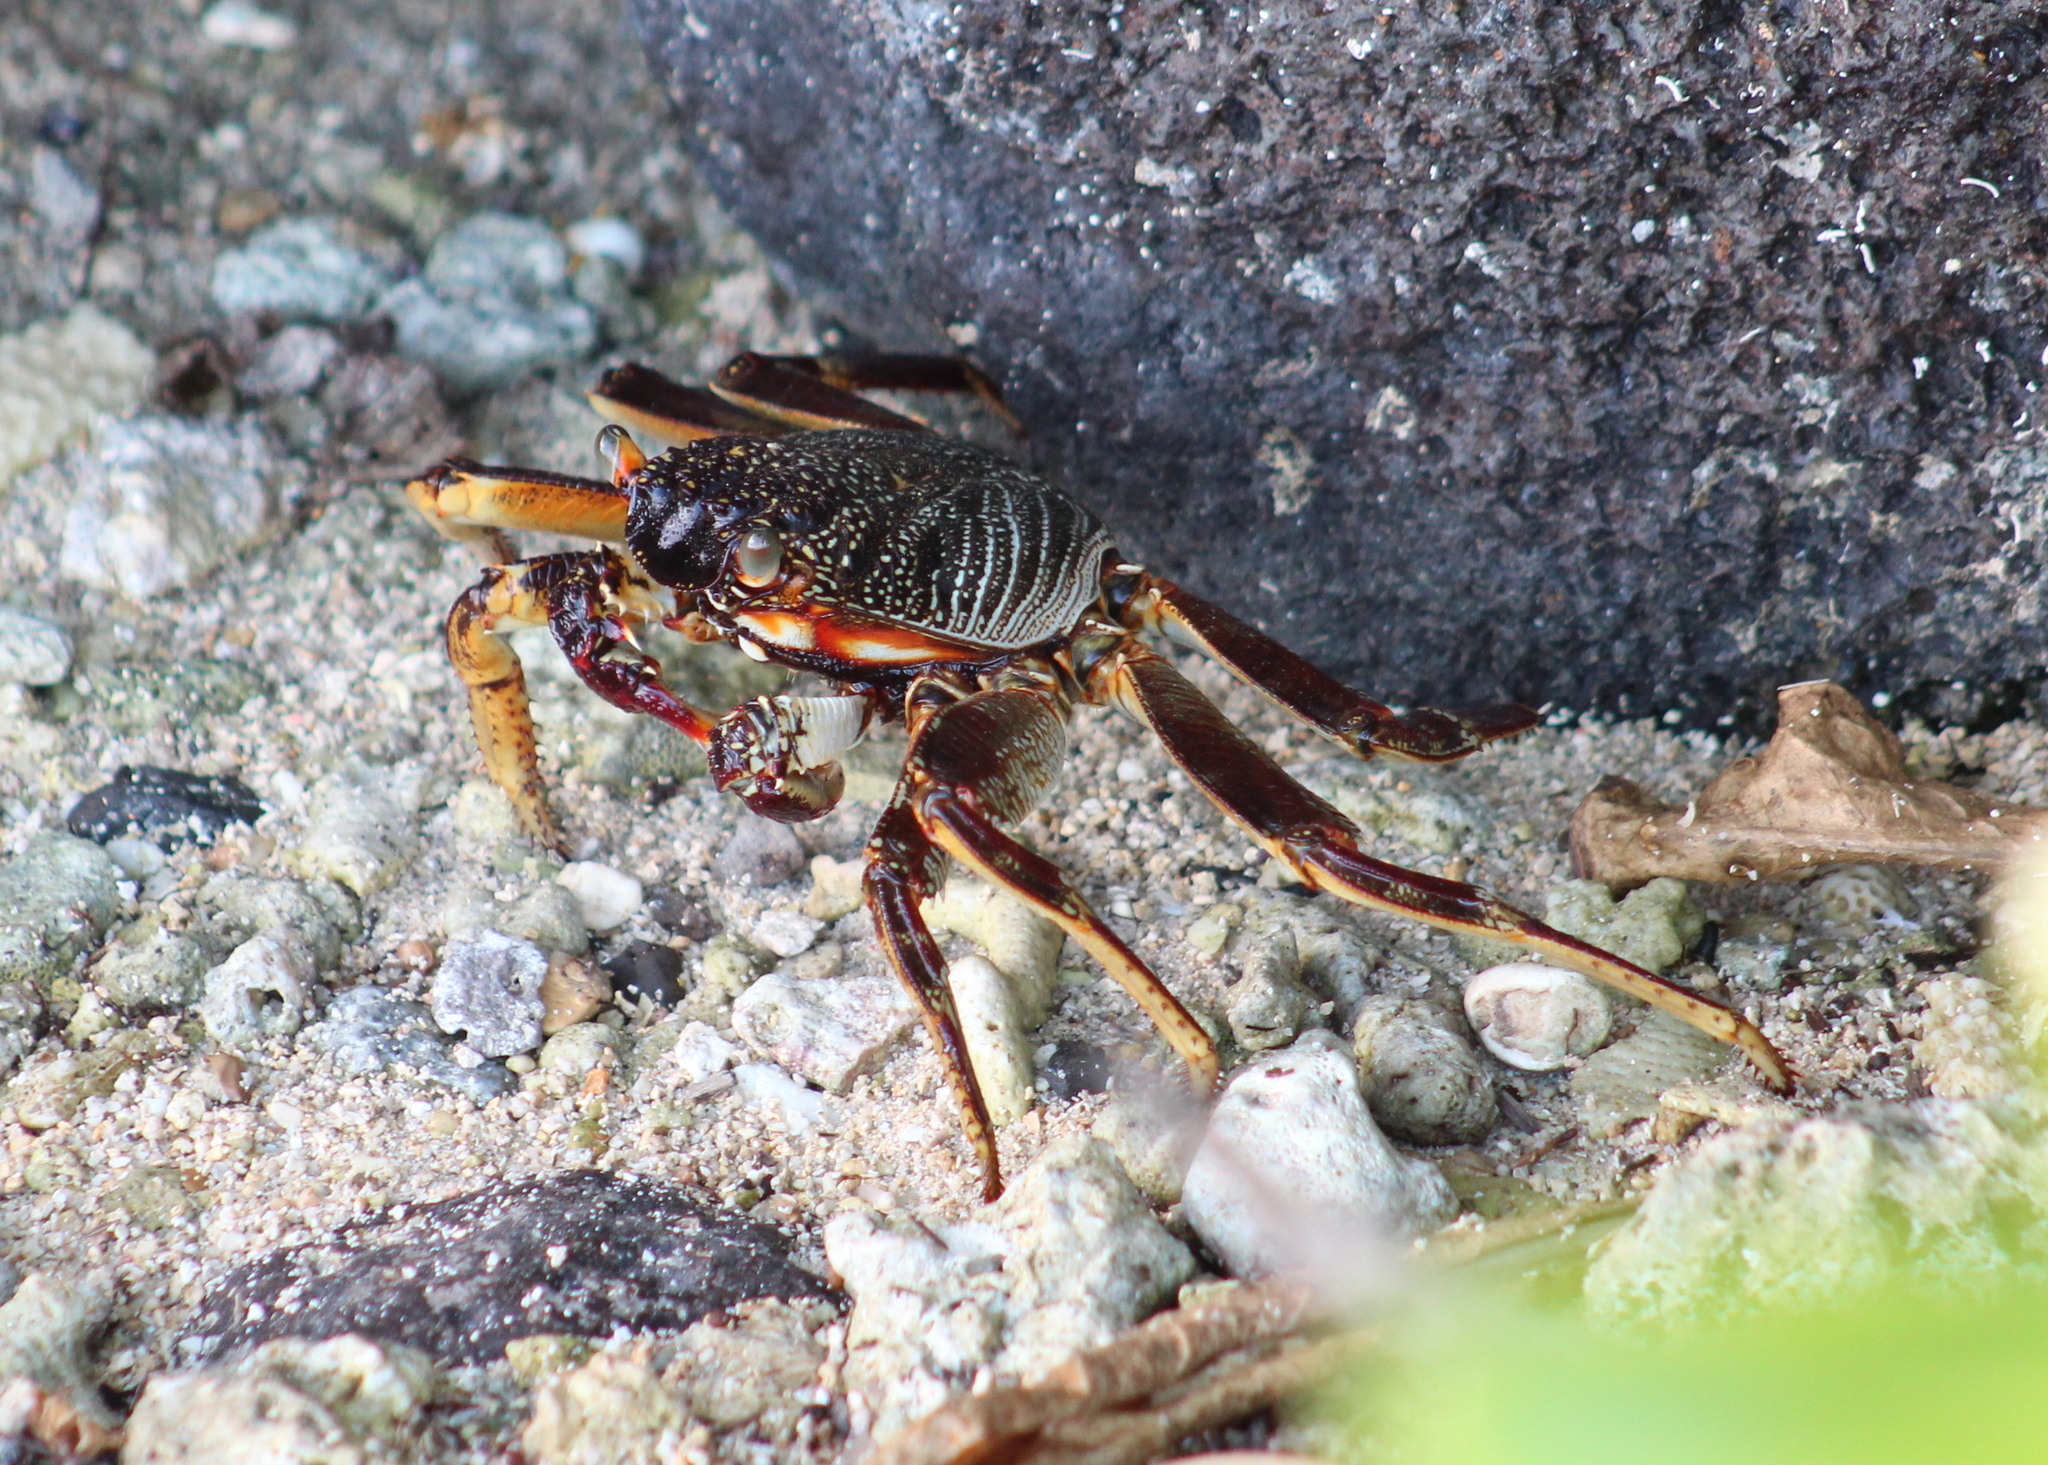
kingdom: Animalia
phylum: Arthropoda
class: Malacostraca
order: Decapoda
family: Grapsidae
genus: Grapsus
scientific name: Grapsus tenuicrustatus
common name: Natal lightfoot crab
